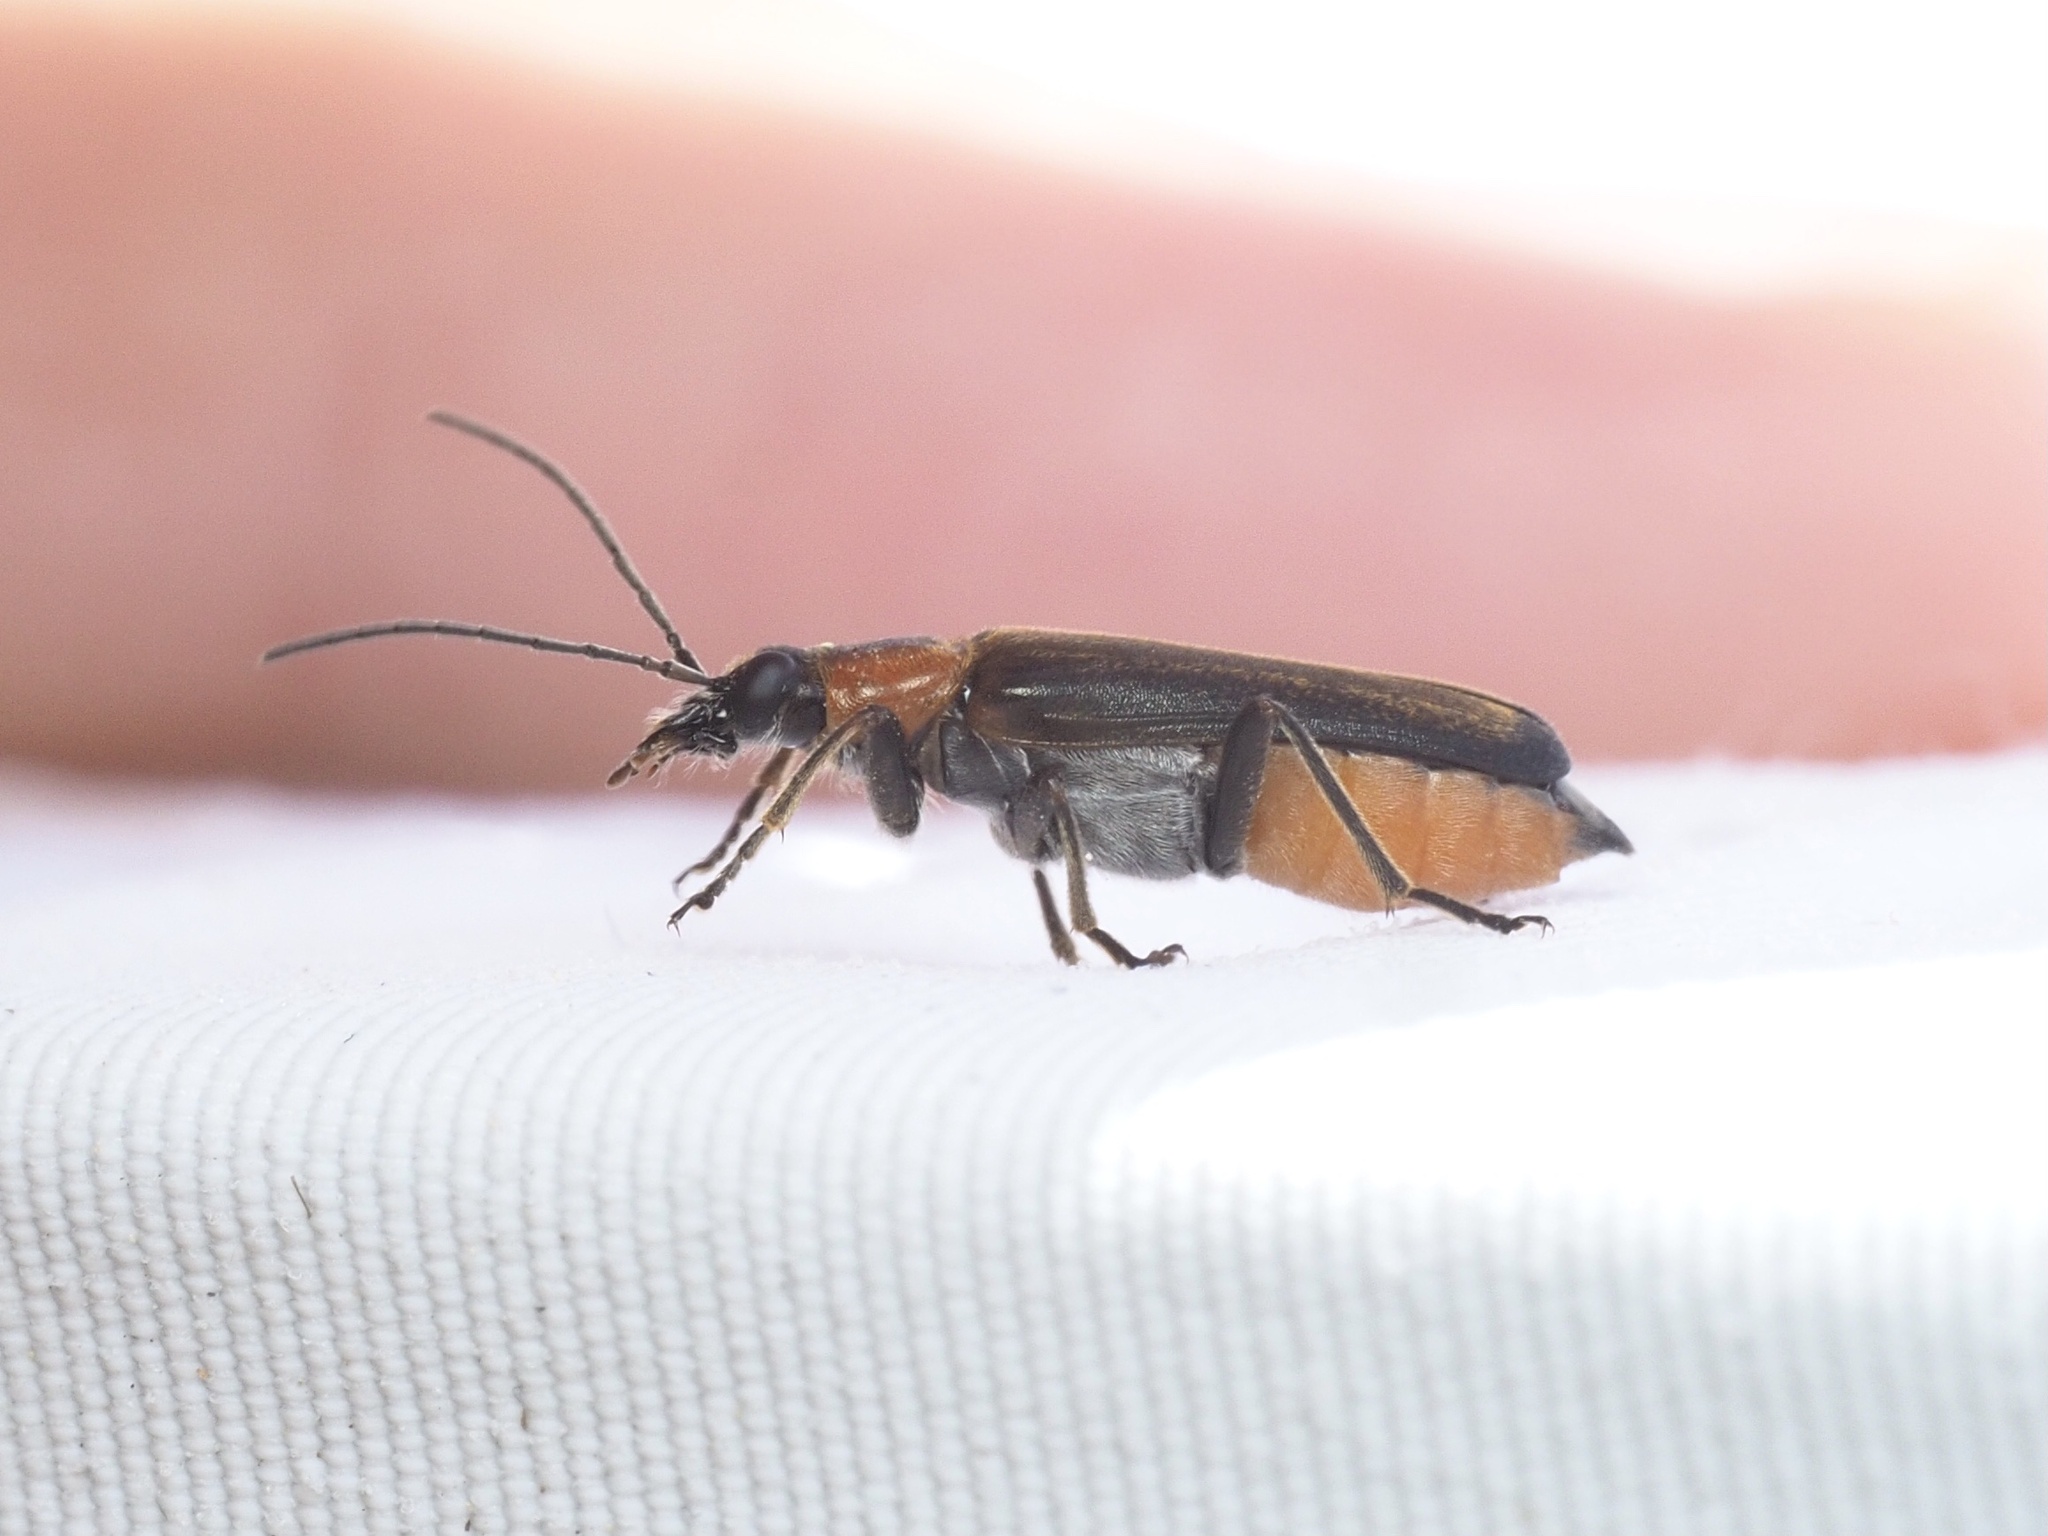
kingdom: Animalia
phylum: Arthropoda
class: Insecta
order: Coleoptera
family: Oedemeridae
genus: Anogcodes
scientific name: Anogcodes rufiventris
